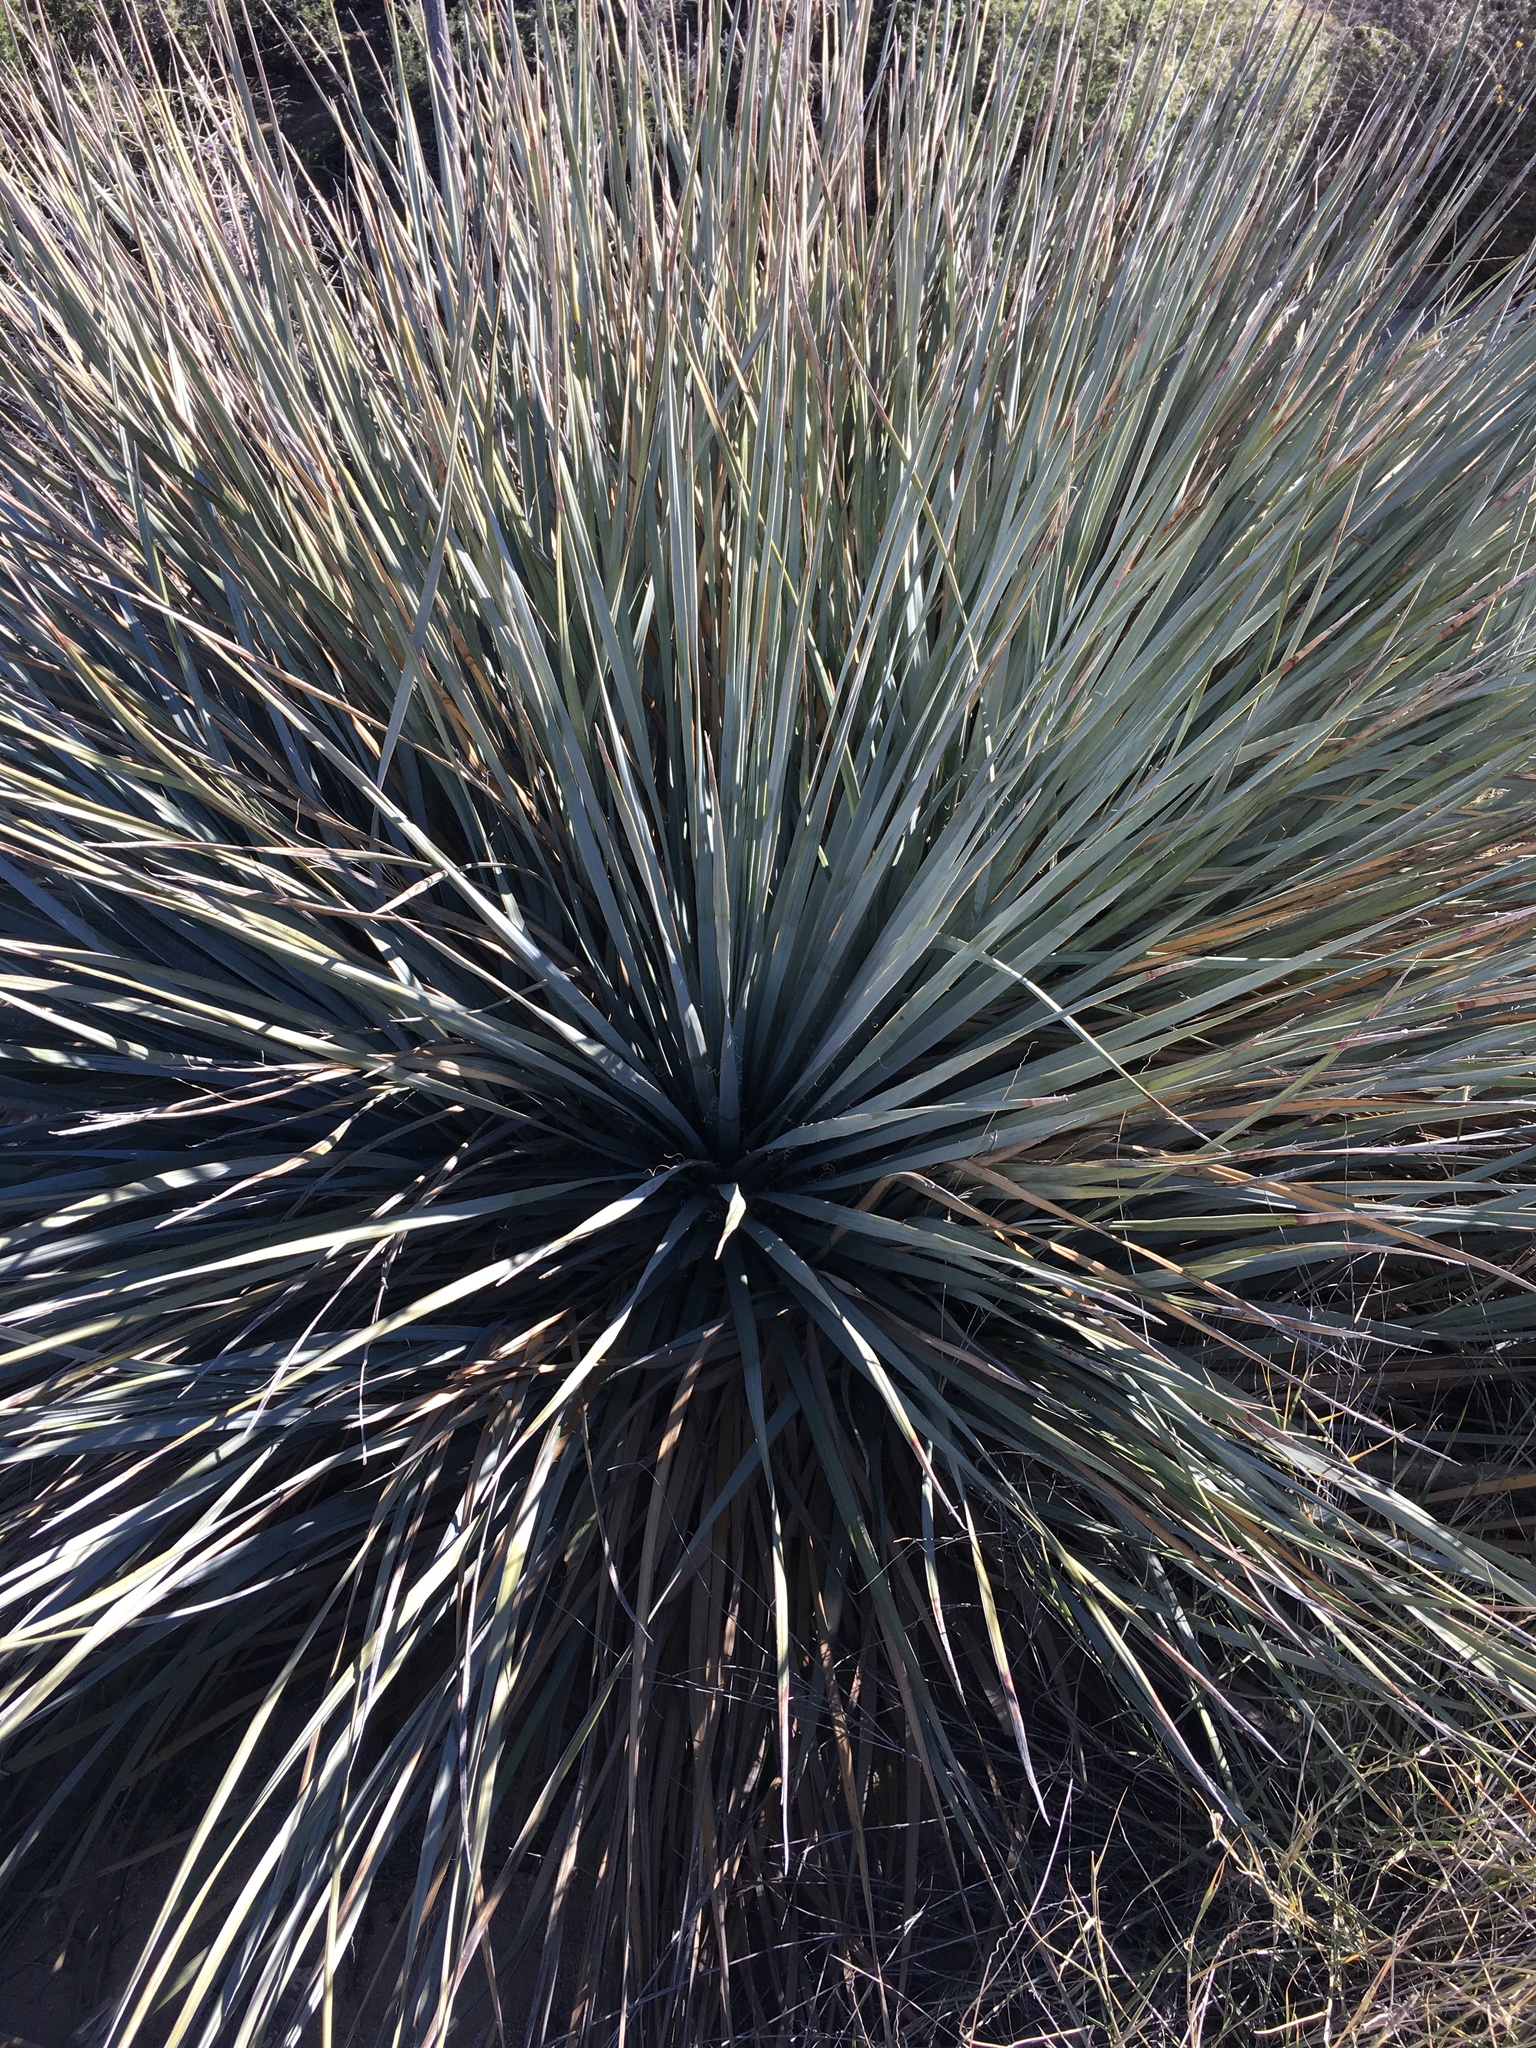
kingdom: Plantae
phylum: Tracheophyta
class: Liliopsida
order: Asparagales
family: Asparagaceae
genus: Nolina
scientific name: Nolina bigelovii
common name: Bigelow bear-grass
